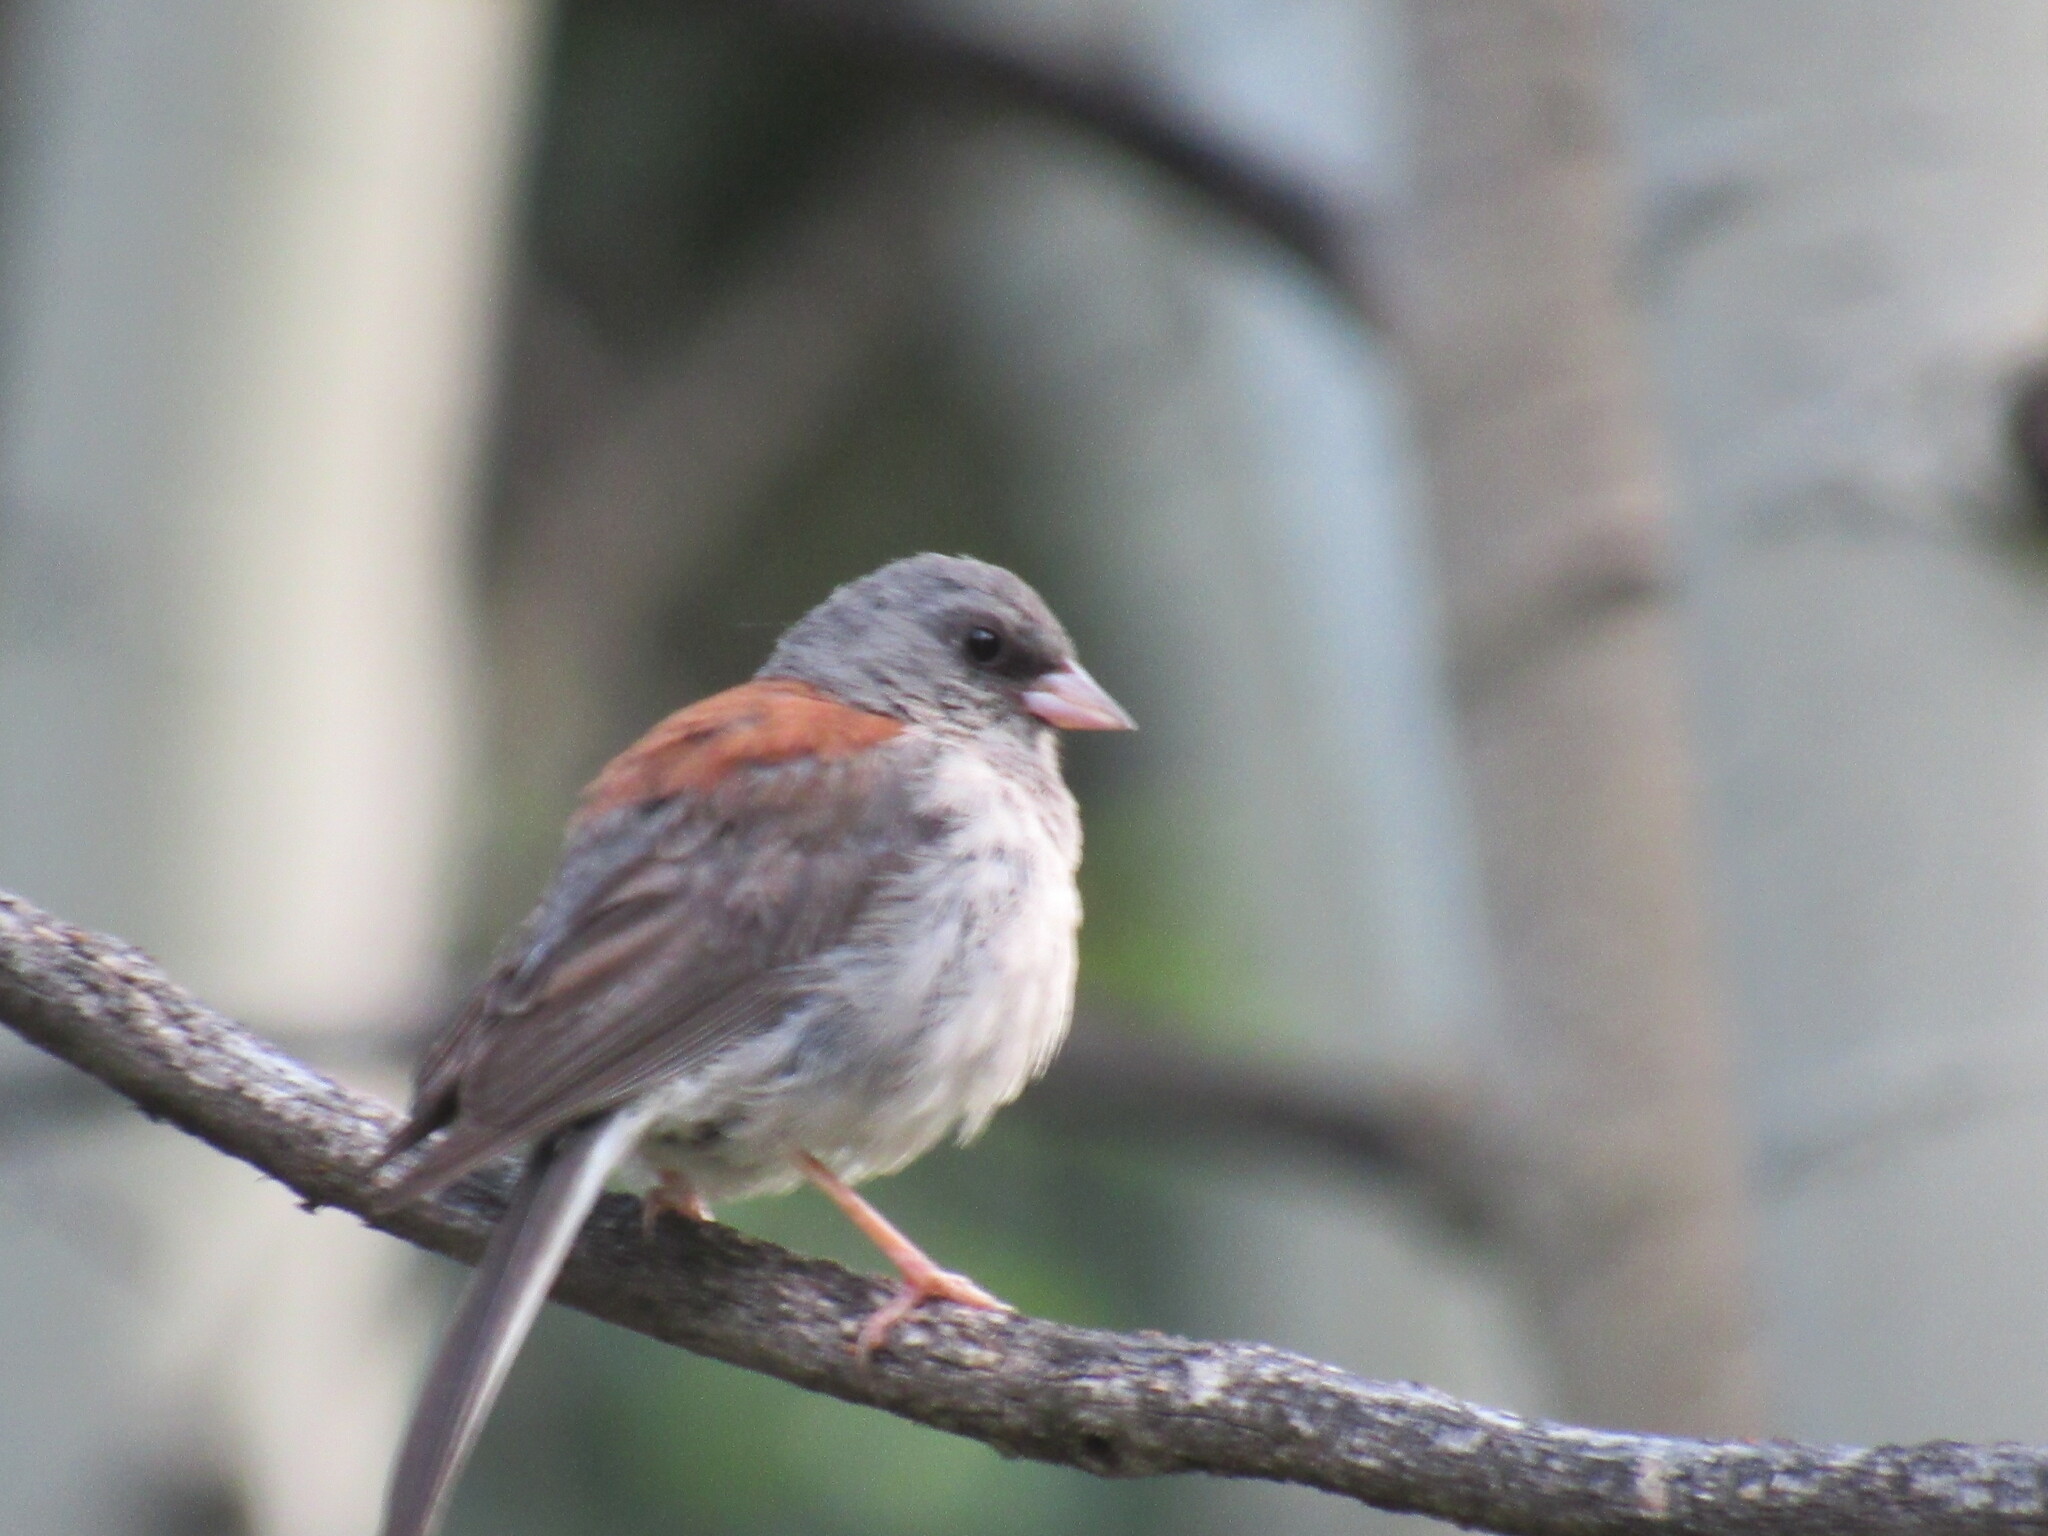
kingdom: Animalia
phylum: Chordata
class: Aves
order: Passeriformes
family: Passerellidae
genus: Junco
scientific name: Junco hyemalis
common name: Dark-eyed junco
